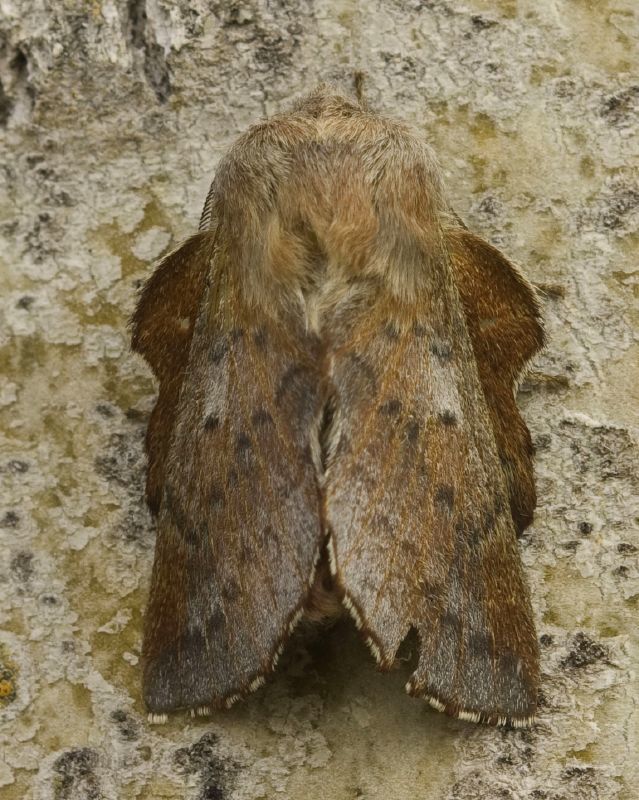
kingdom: Animalia
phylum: Arthropoda
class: Insecta
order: Lepidoptera
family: Lasiocampidae
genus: Phyllodesma
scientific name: Phyllodesma americana
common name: American lappet moth
